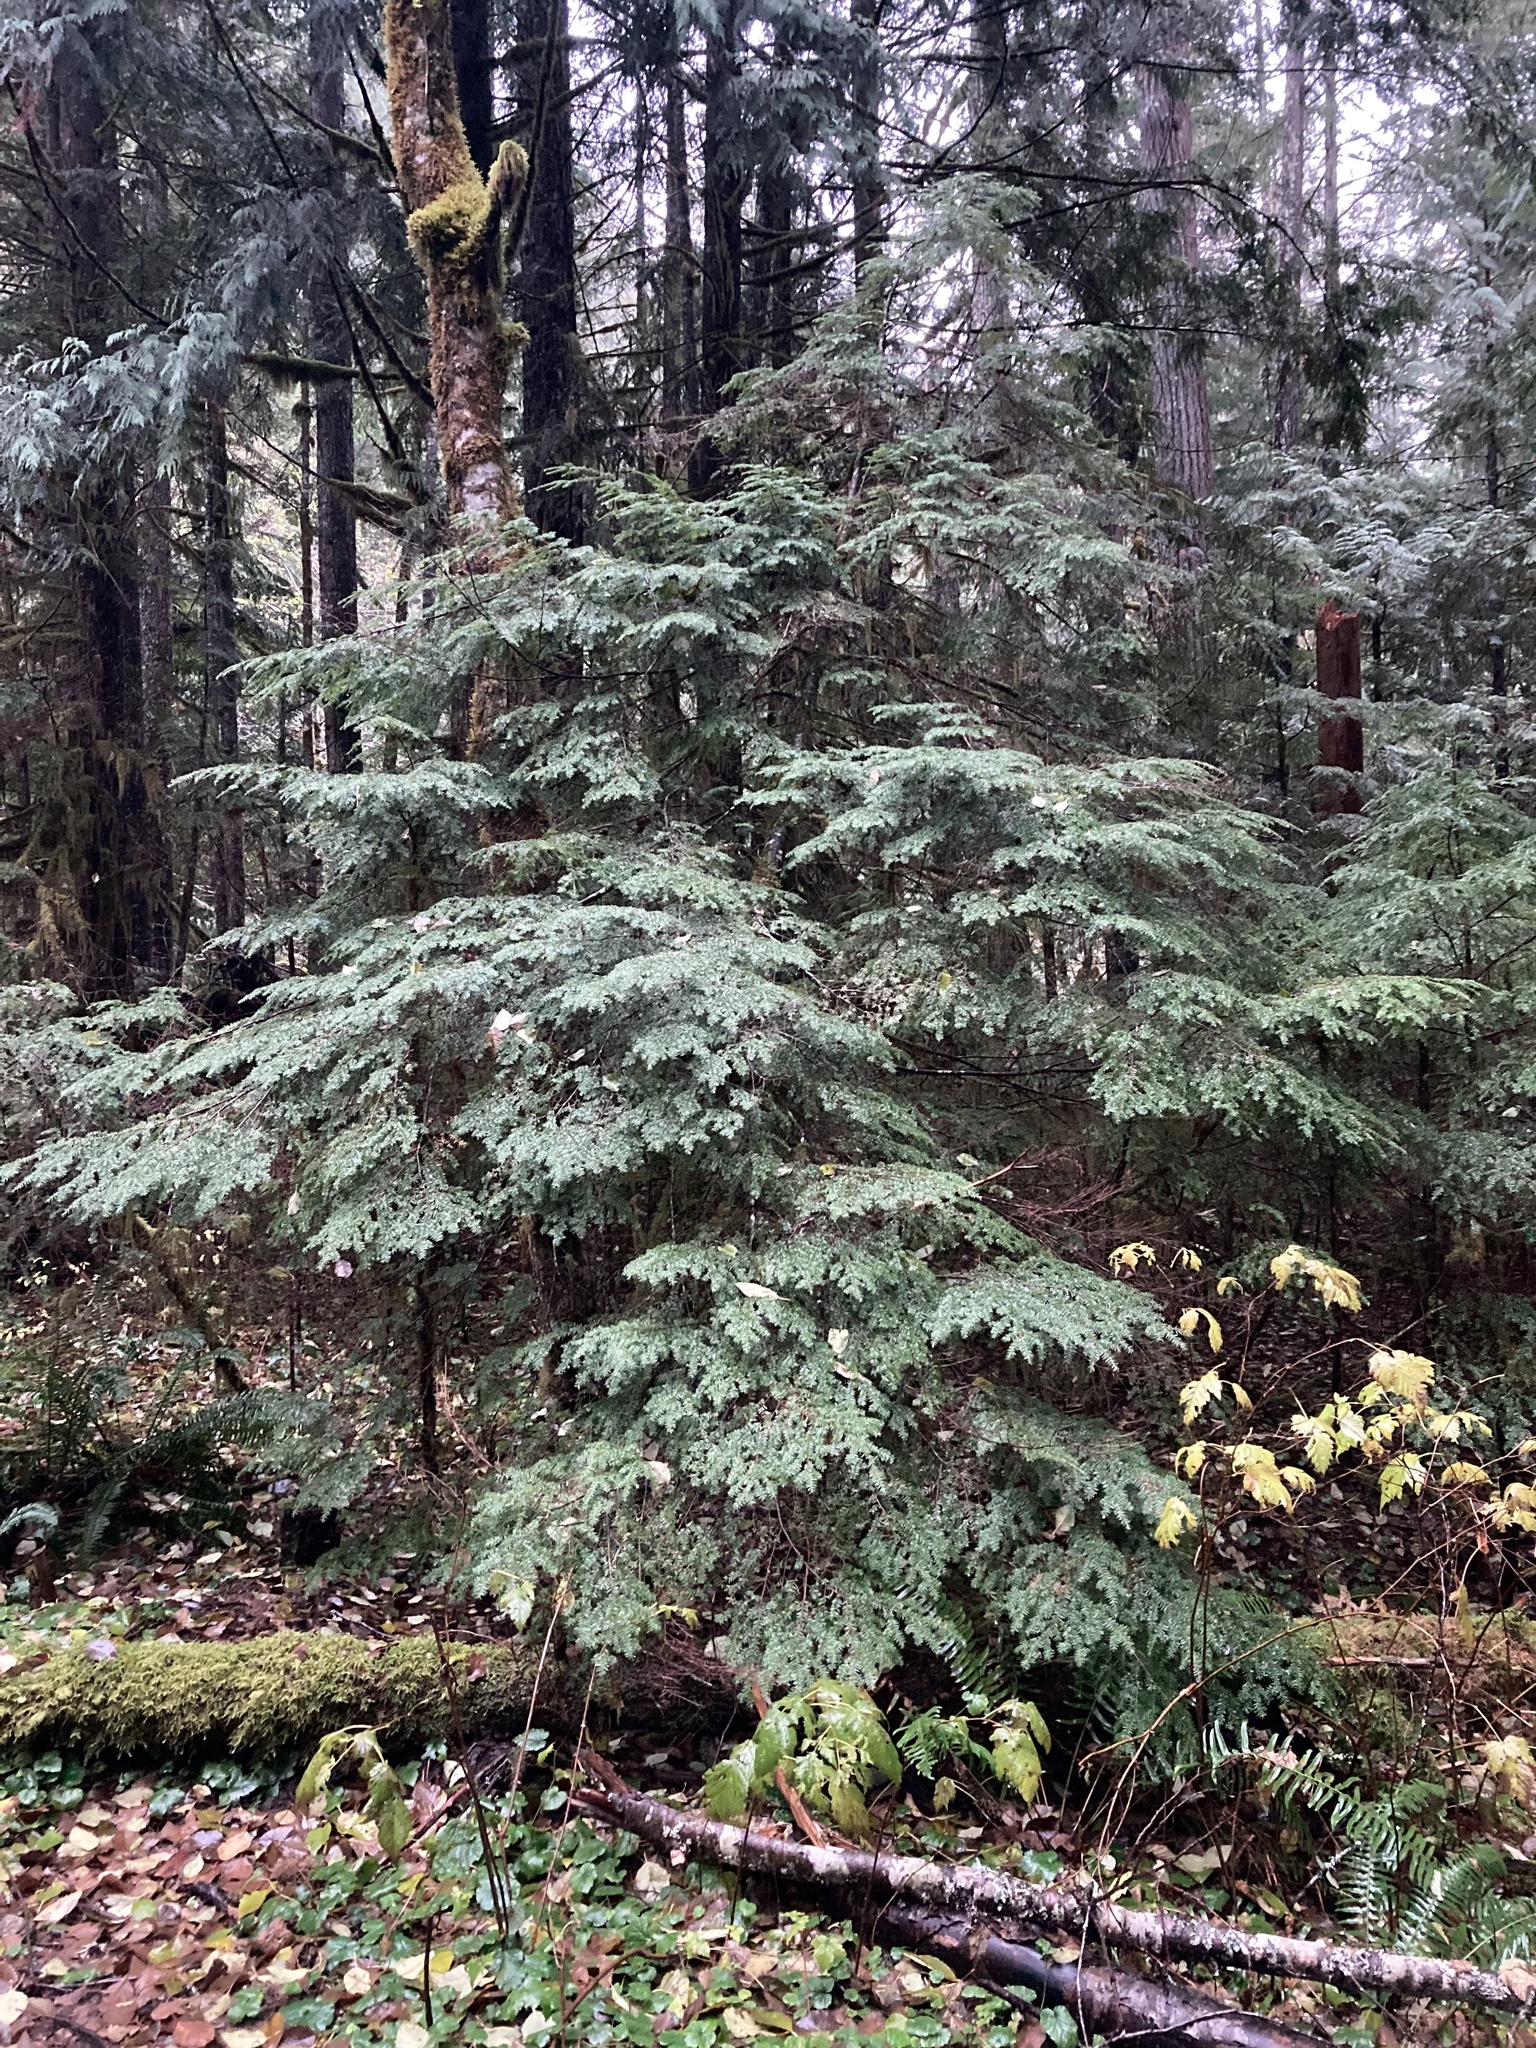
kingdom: Plantae
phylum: Tracheophyta
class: Pinopsida
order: Pinales
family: Pinaceae
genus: Tsuga
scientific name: Tsuga heterophylla
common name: Western hemlock
